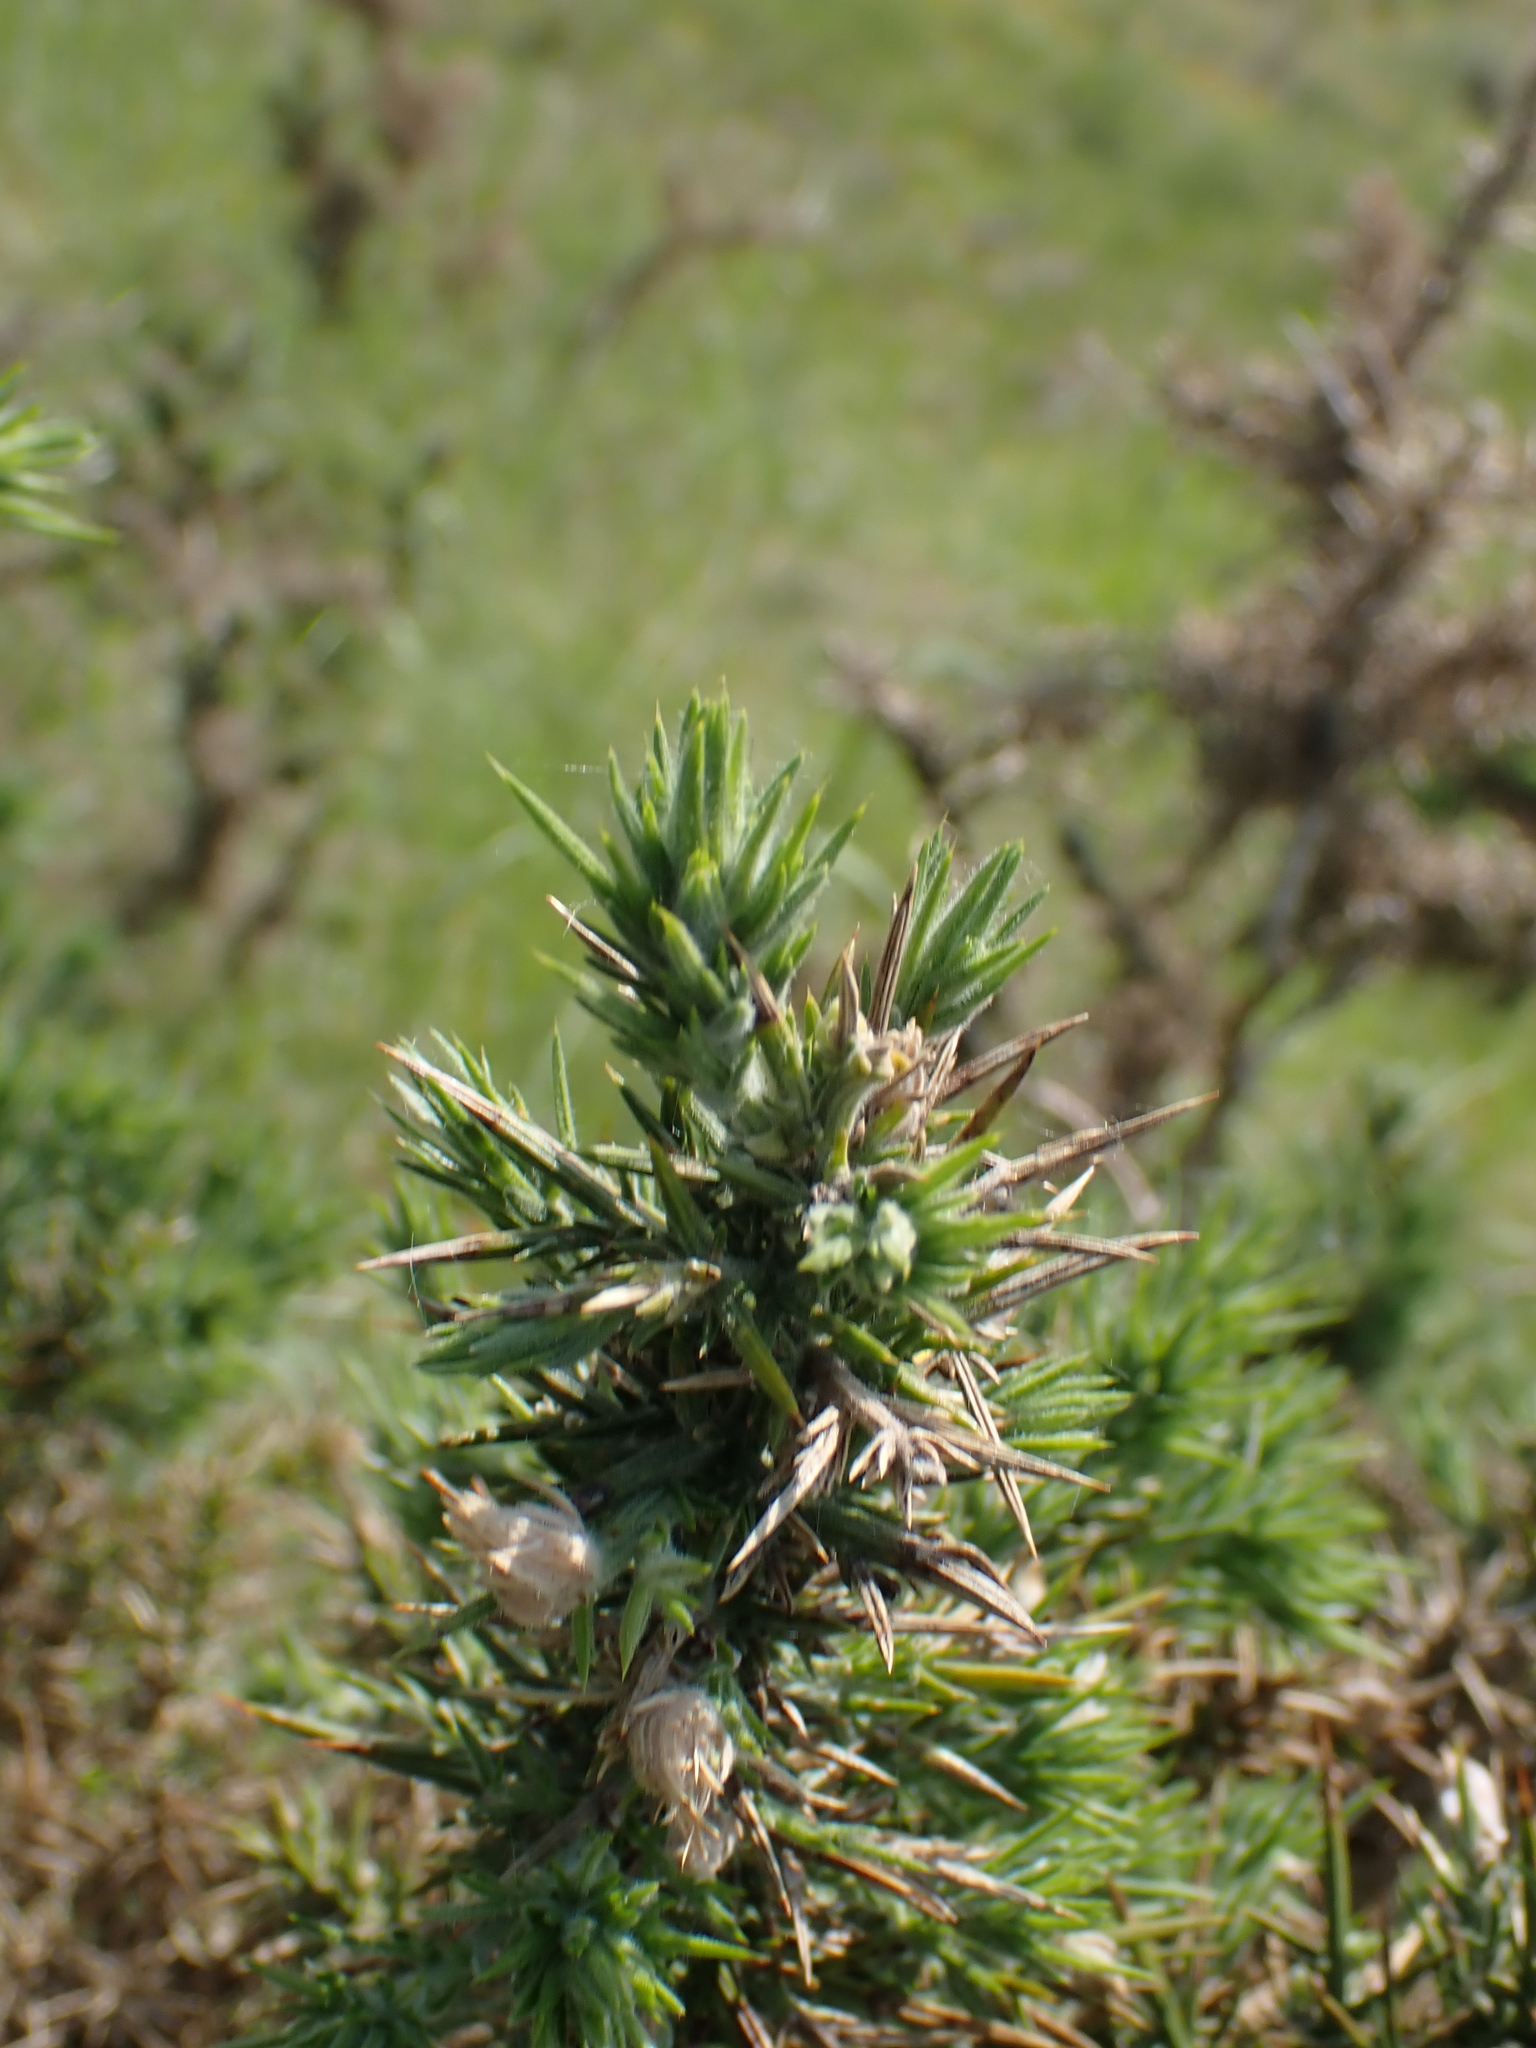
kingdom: Plantae
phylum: Tracheophyta
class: Magnoliopsida
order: Fabales
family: Fabaceae
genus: Ulex
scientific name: Ulex europaeus
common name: Common gorse
